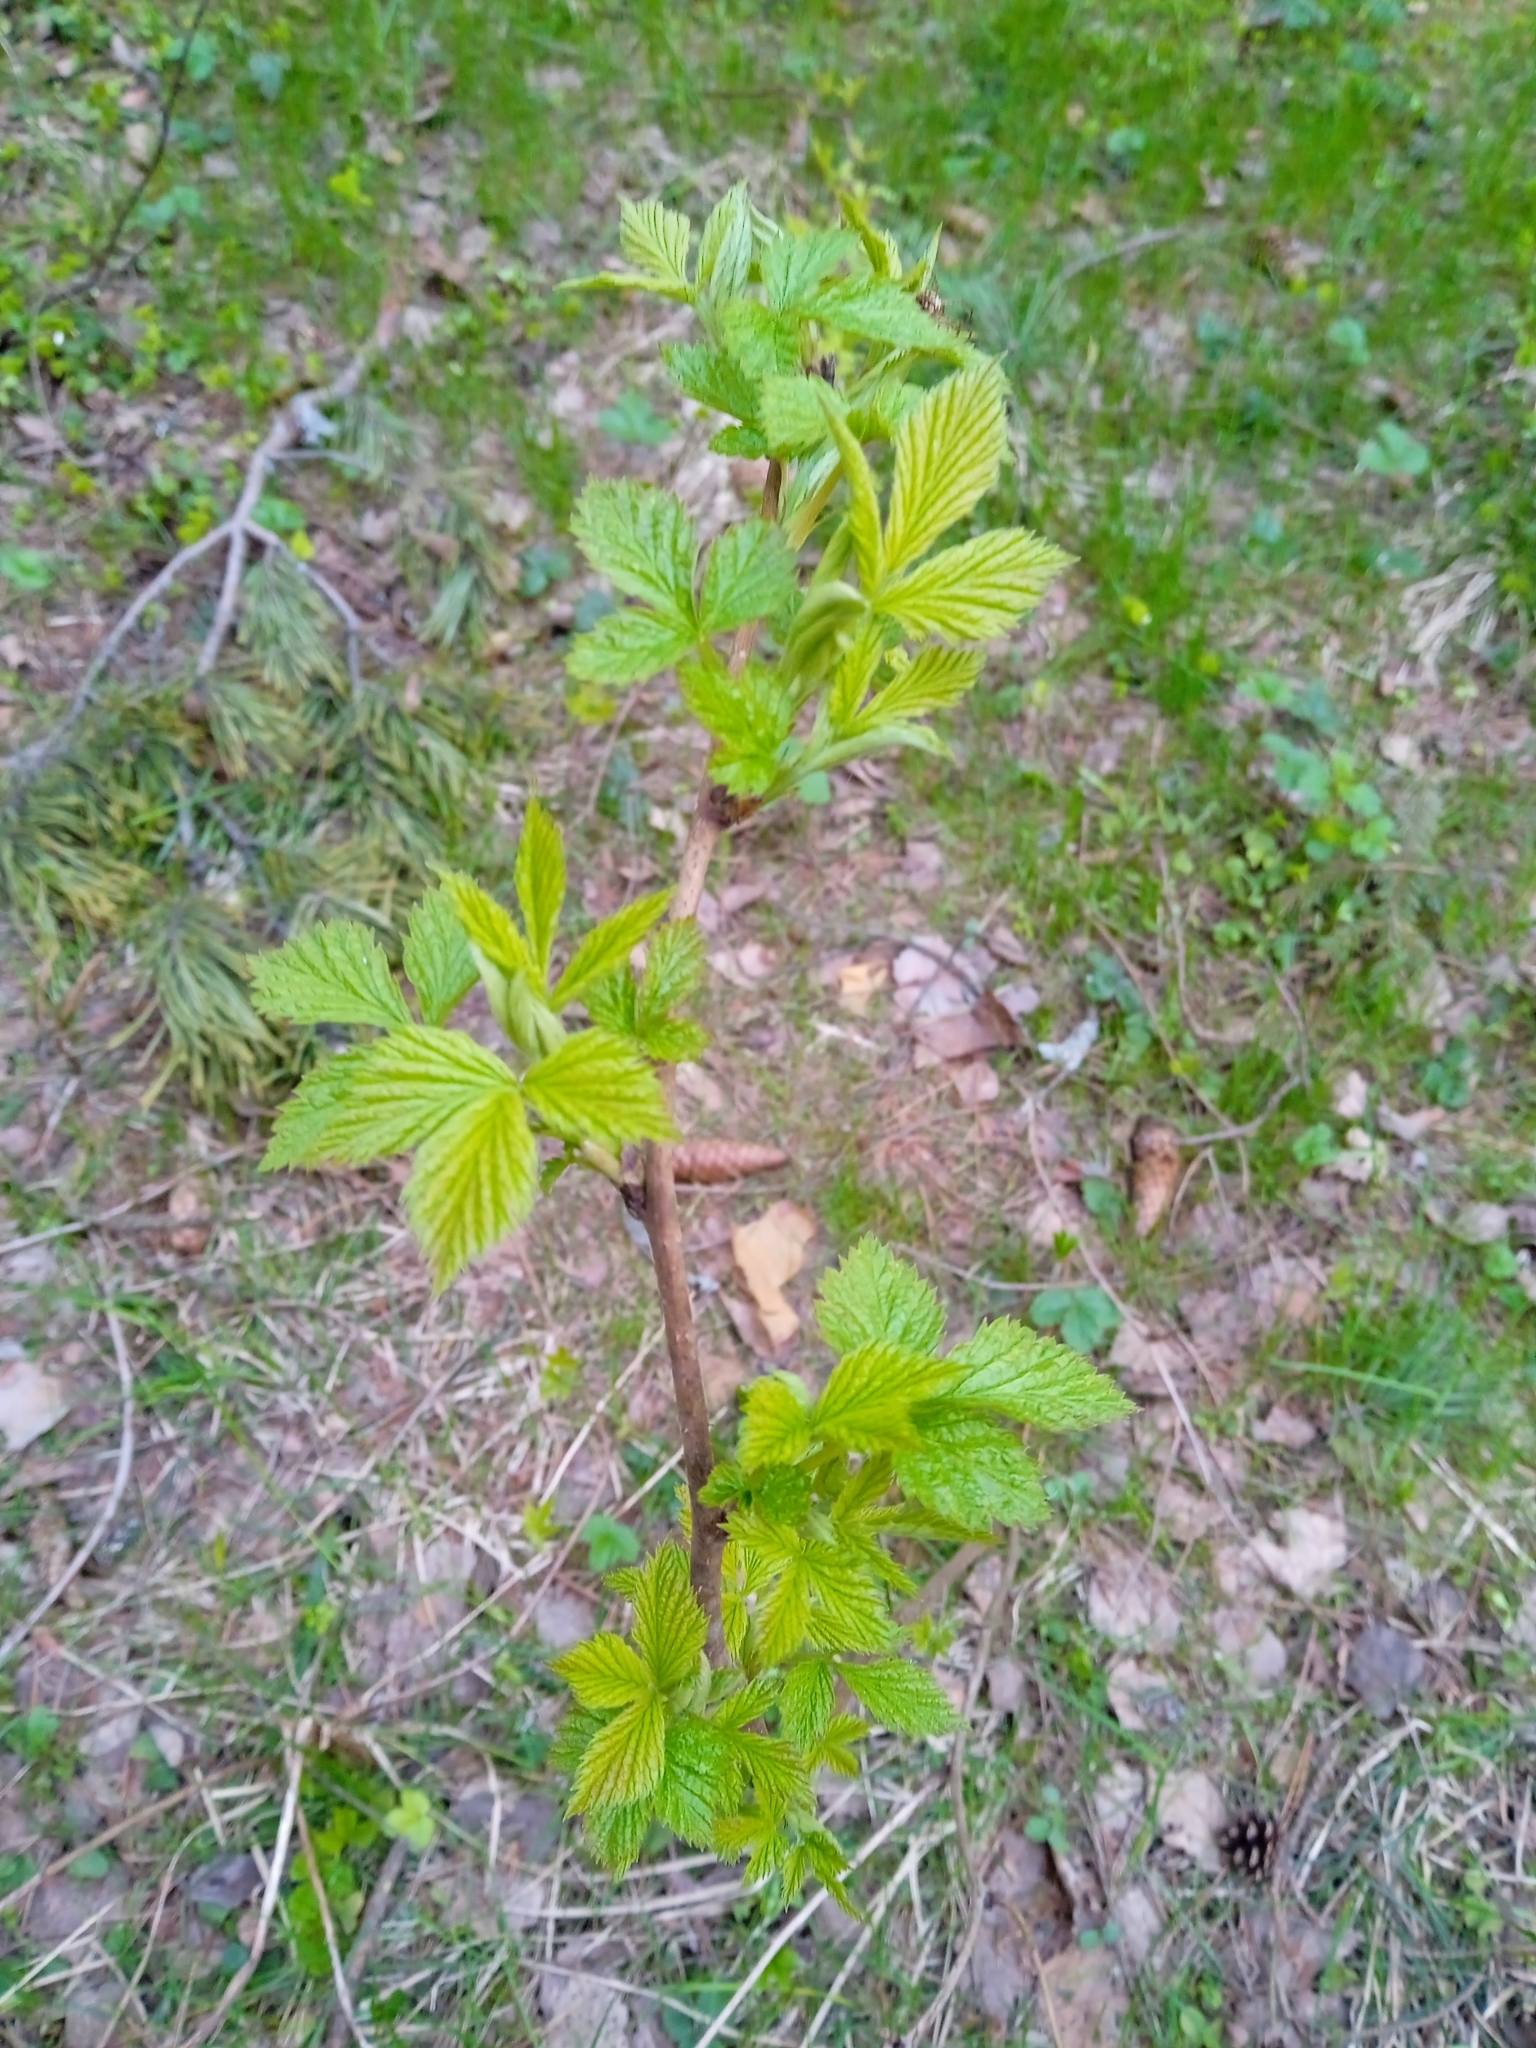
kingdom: Plantae
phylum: Tracheophyta
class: Magnoliopsida
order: Rosales
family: Rosaceae
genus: Rubus
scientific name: Rubus idaeus
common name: Raspberry
